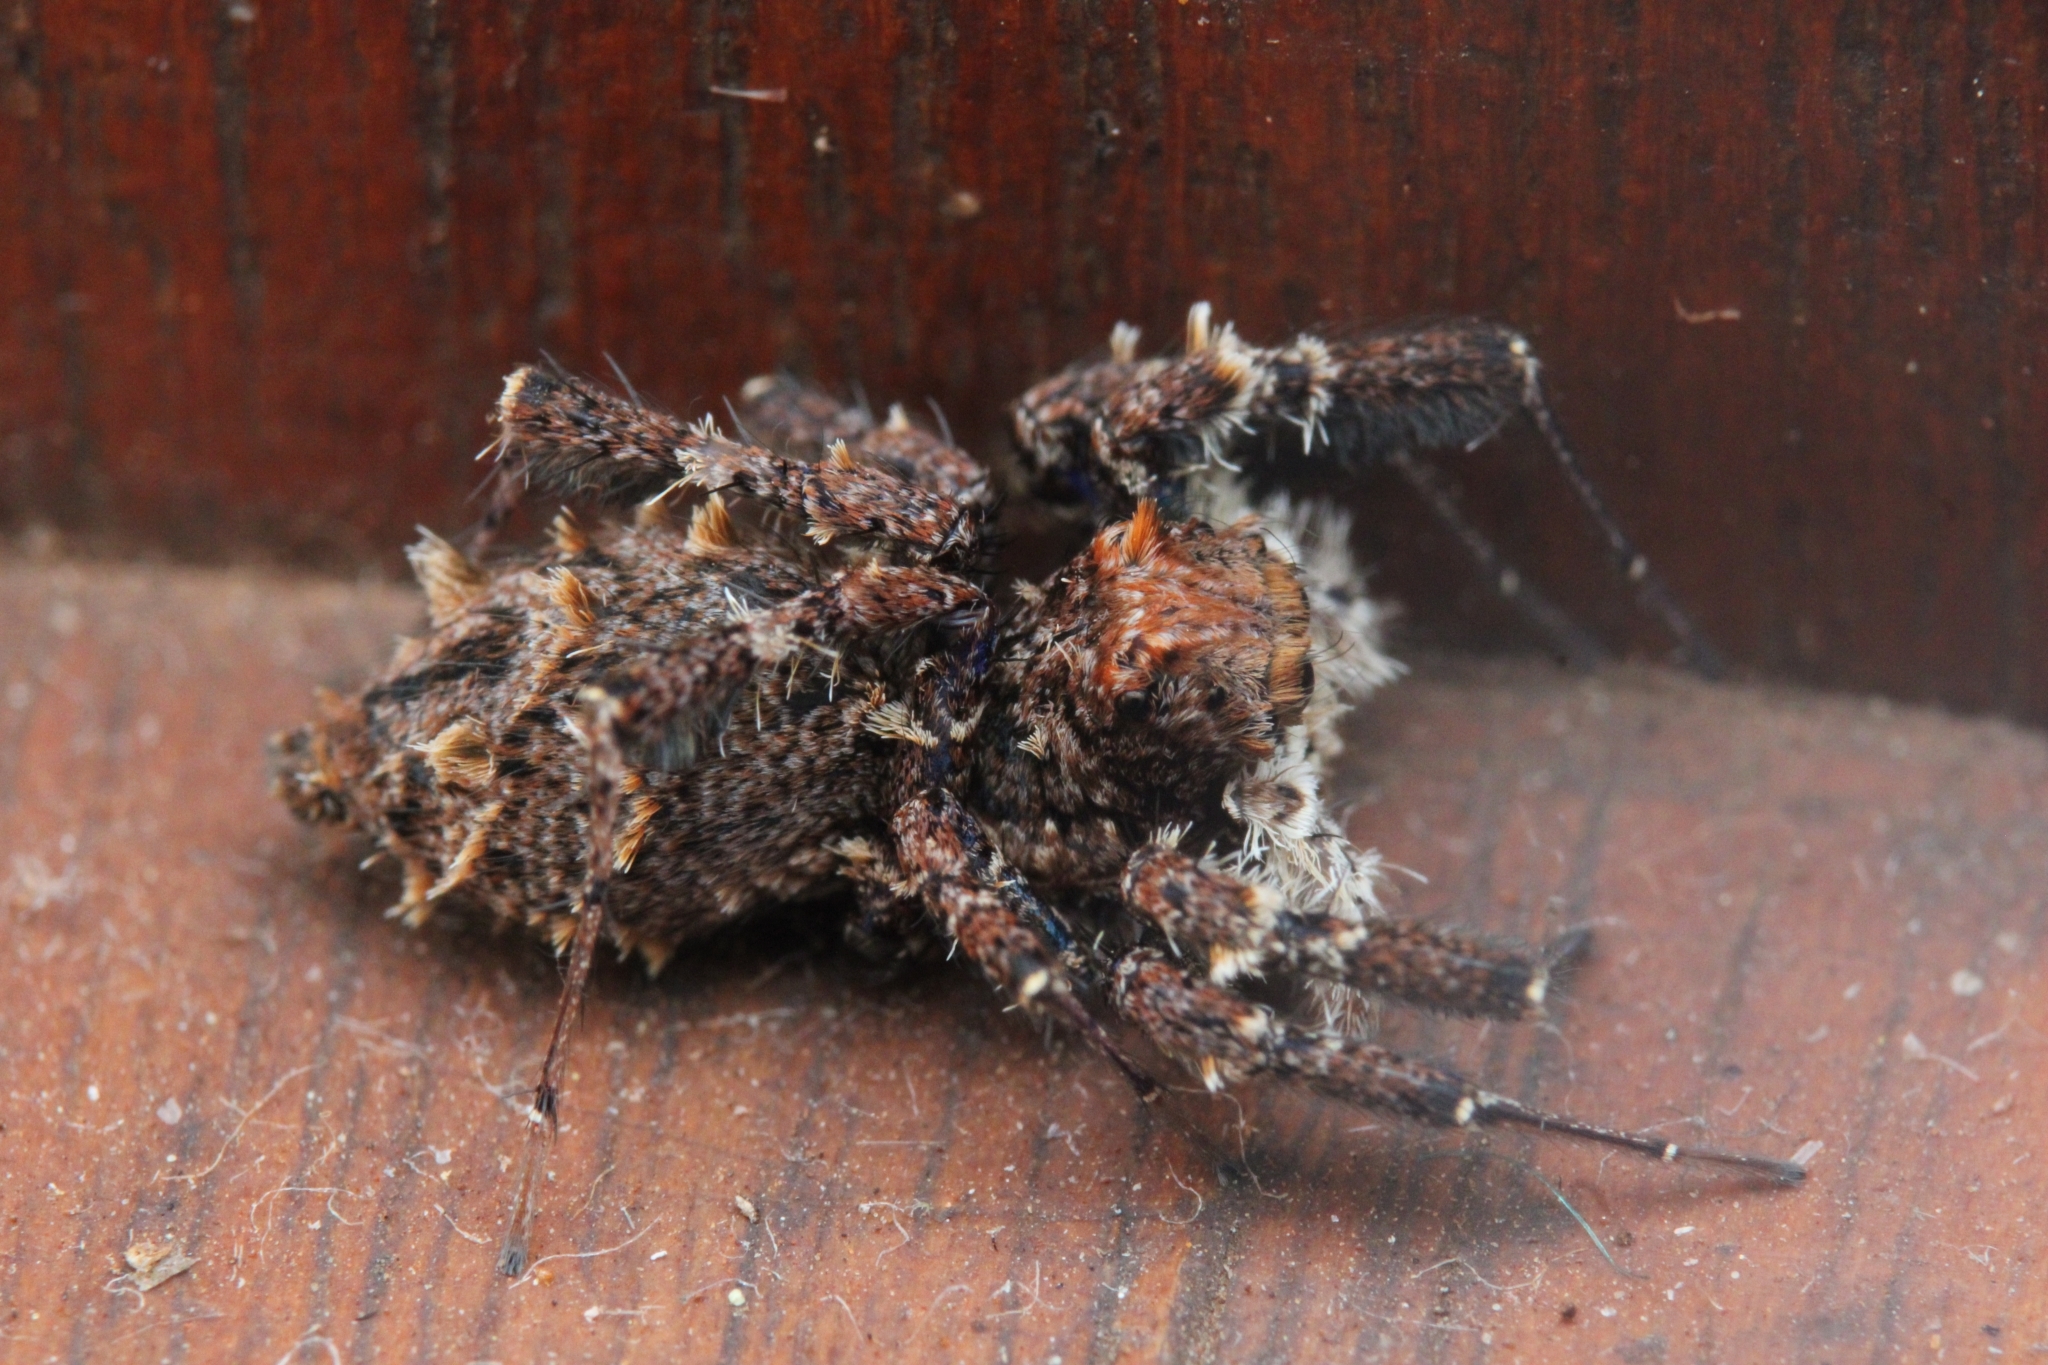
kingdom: Animalia
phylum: Arthropoda
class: Arachnida
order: Araneae
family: Salticidae
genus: Portia
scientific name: Portia schultzi
